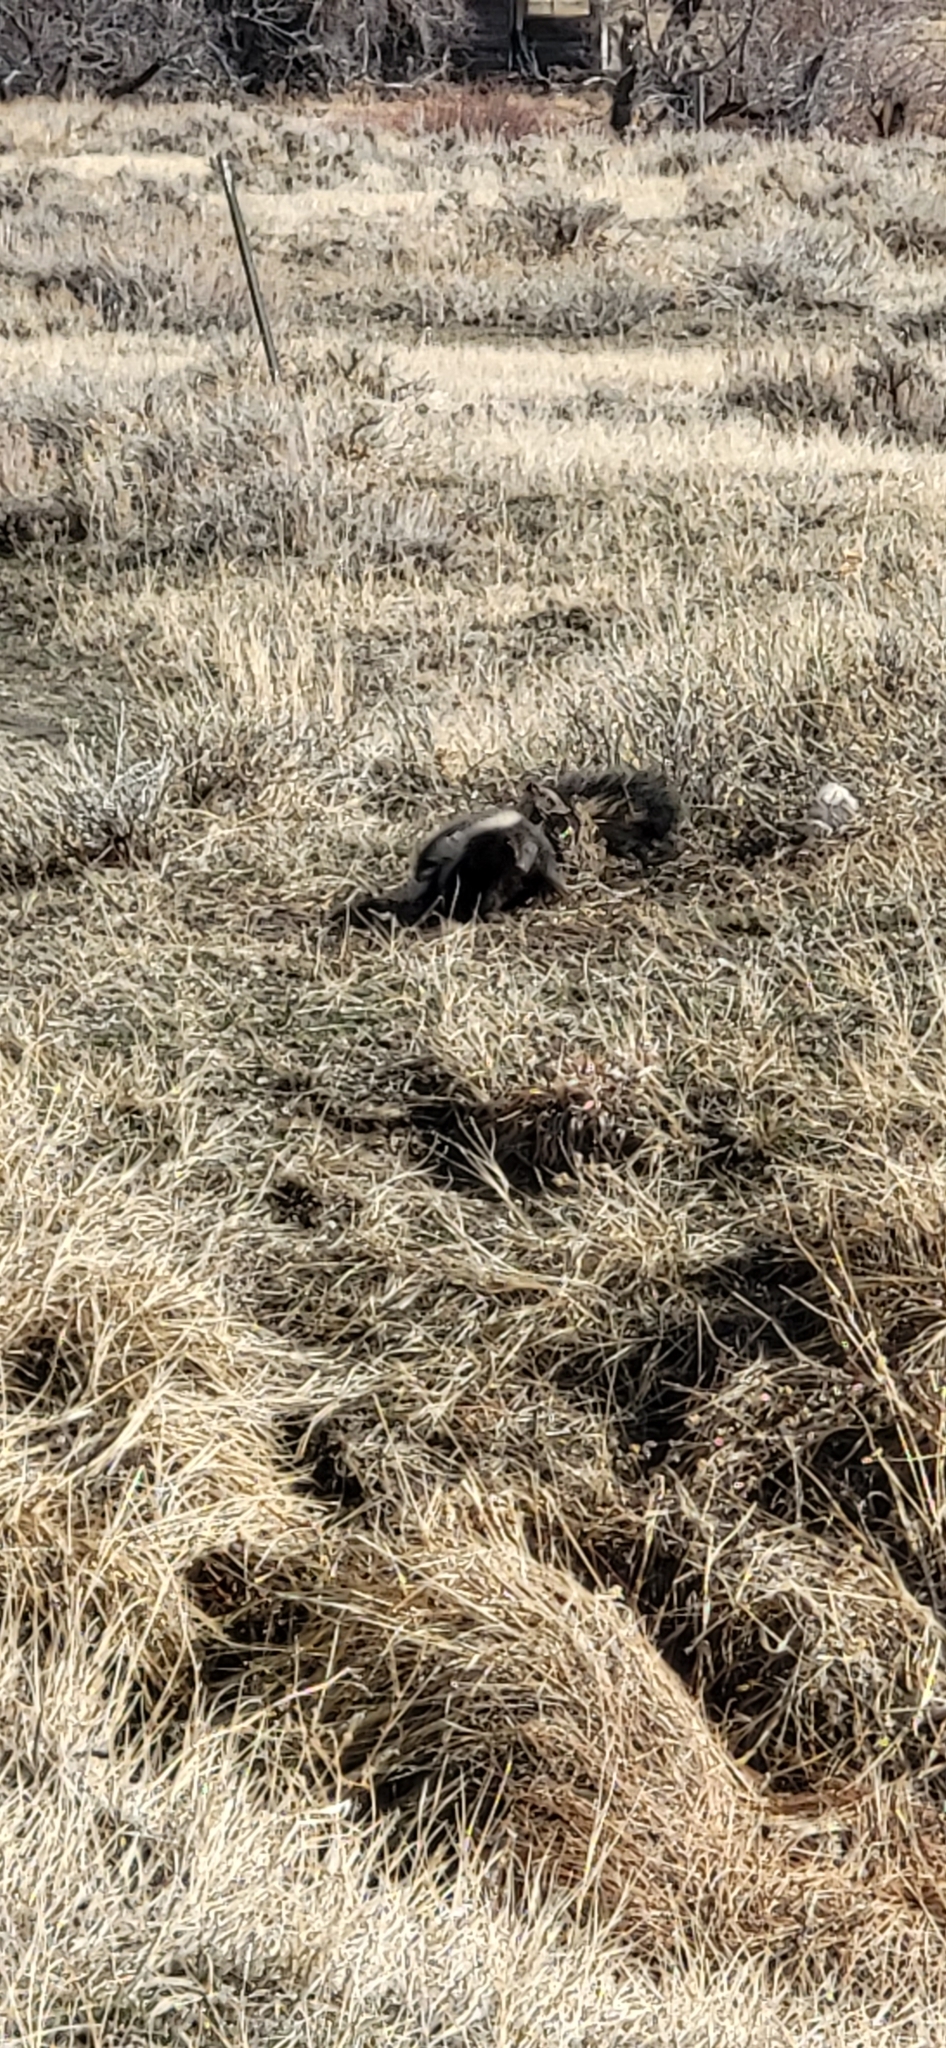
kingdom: Animalia
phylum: Chordata
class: Mammalia
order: Carnivora
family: Mephitidae
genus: Mephitis
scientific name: Mephitis mephitis
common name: Striped skunk
